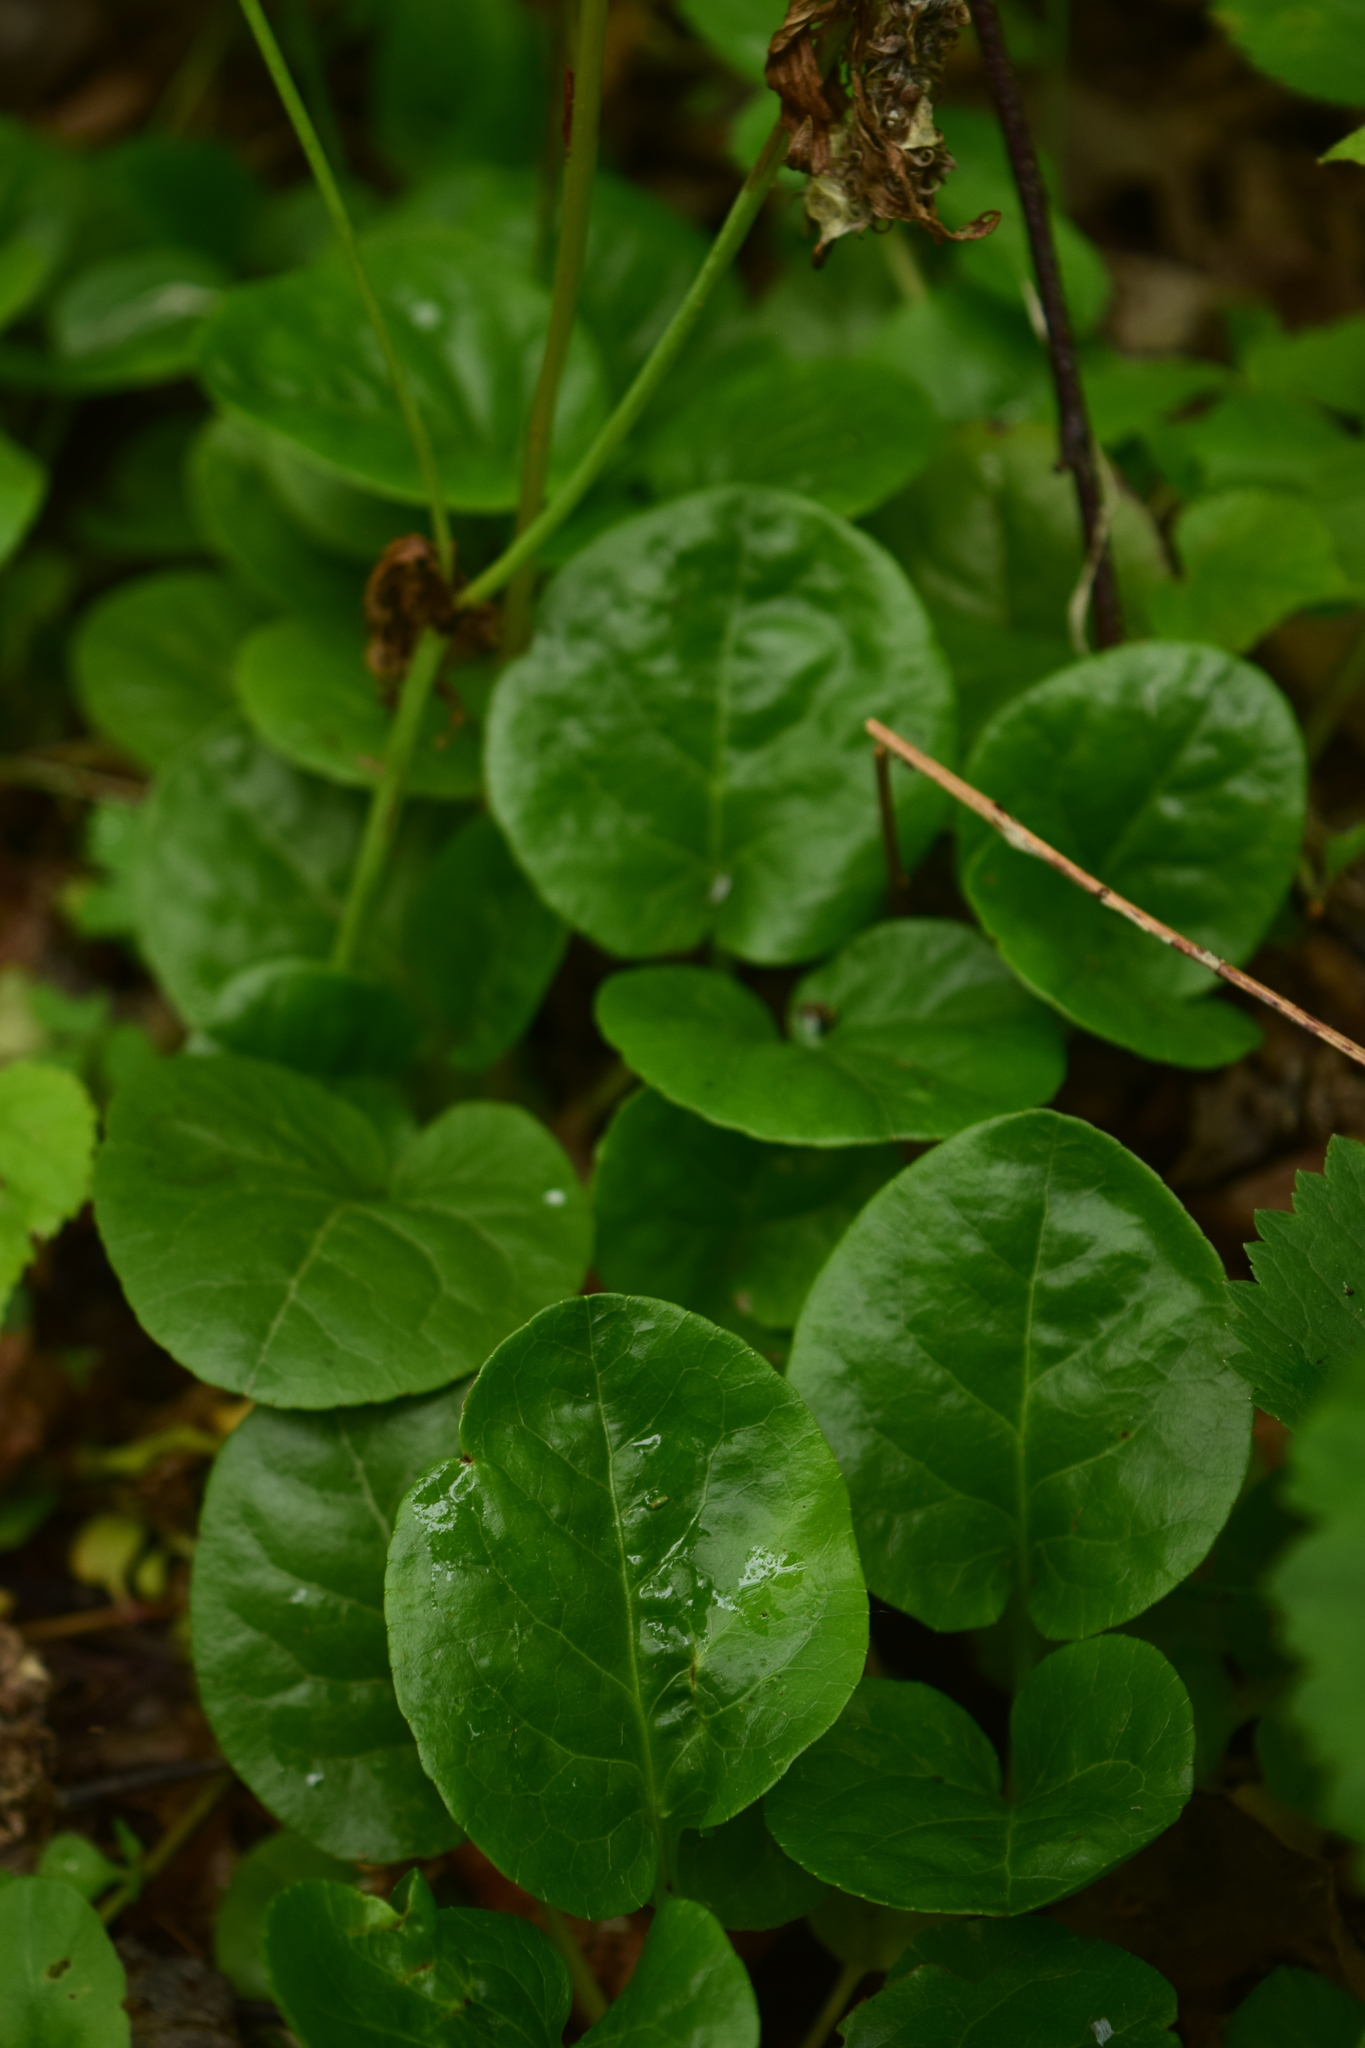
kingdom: Plantae
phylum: Tracheophyta
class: Magnoliopsida
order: Ericales
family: Ericaceae
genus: Pyrola
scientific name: Pyrola rotundifolia
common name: Round-leaved wintergreen
